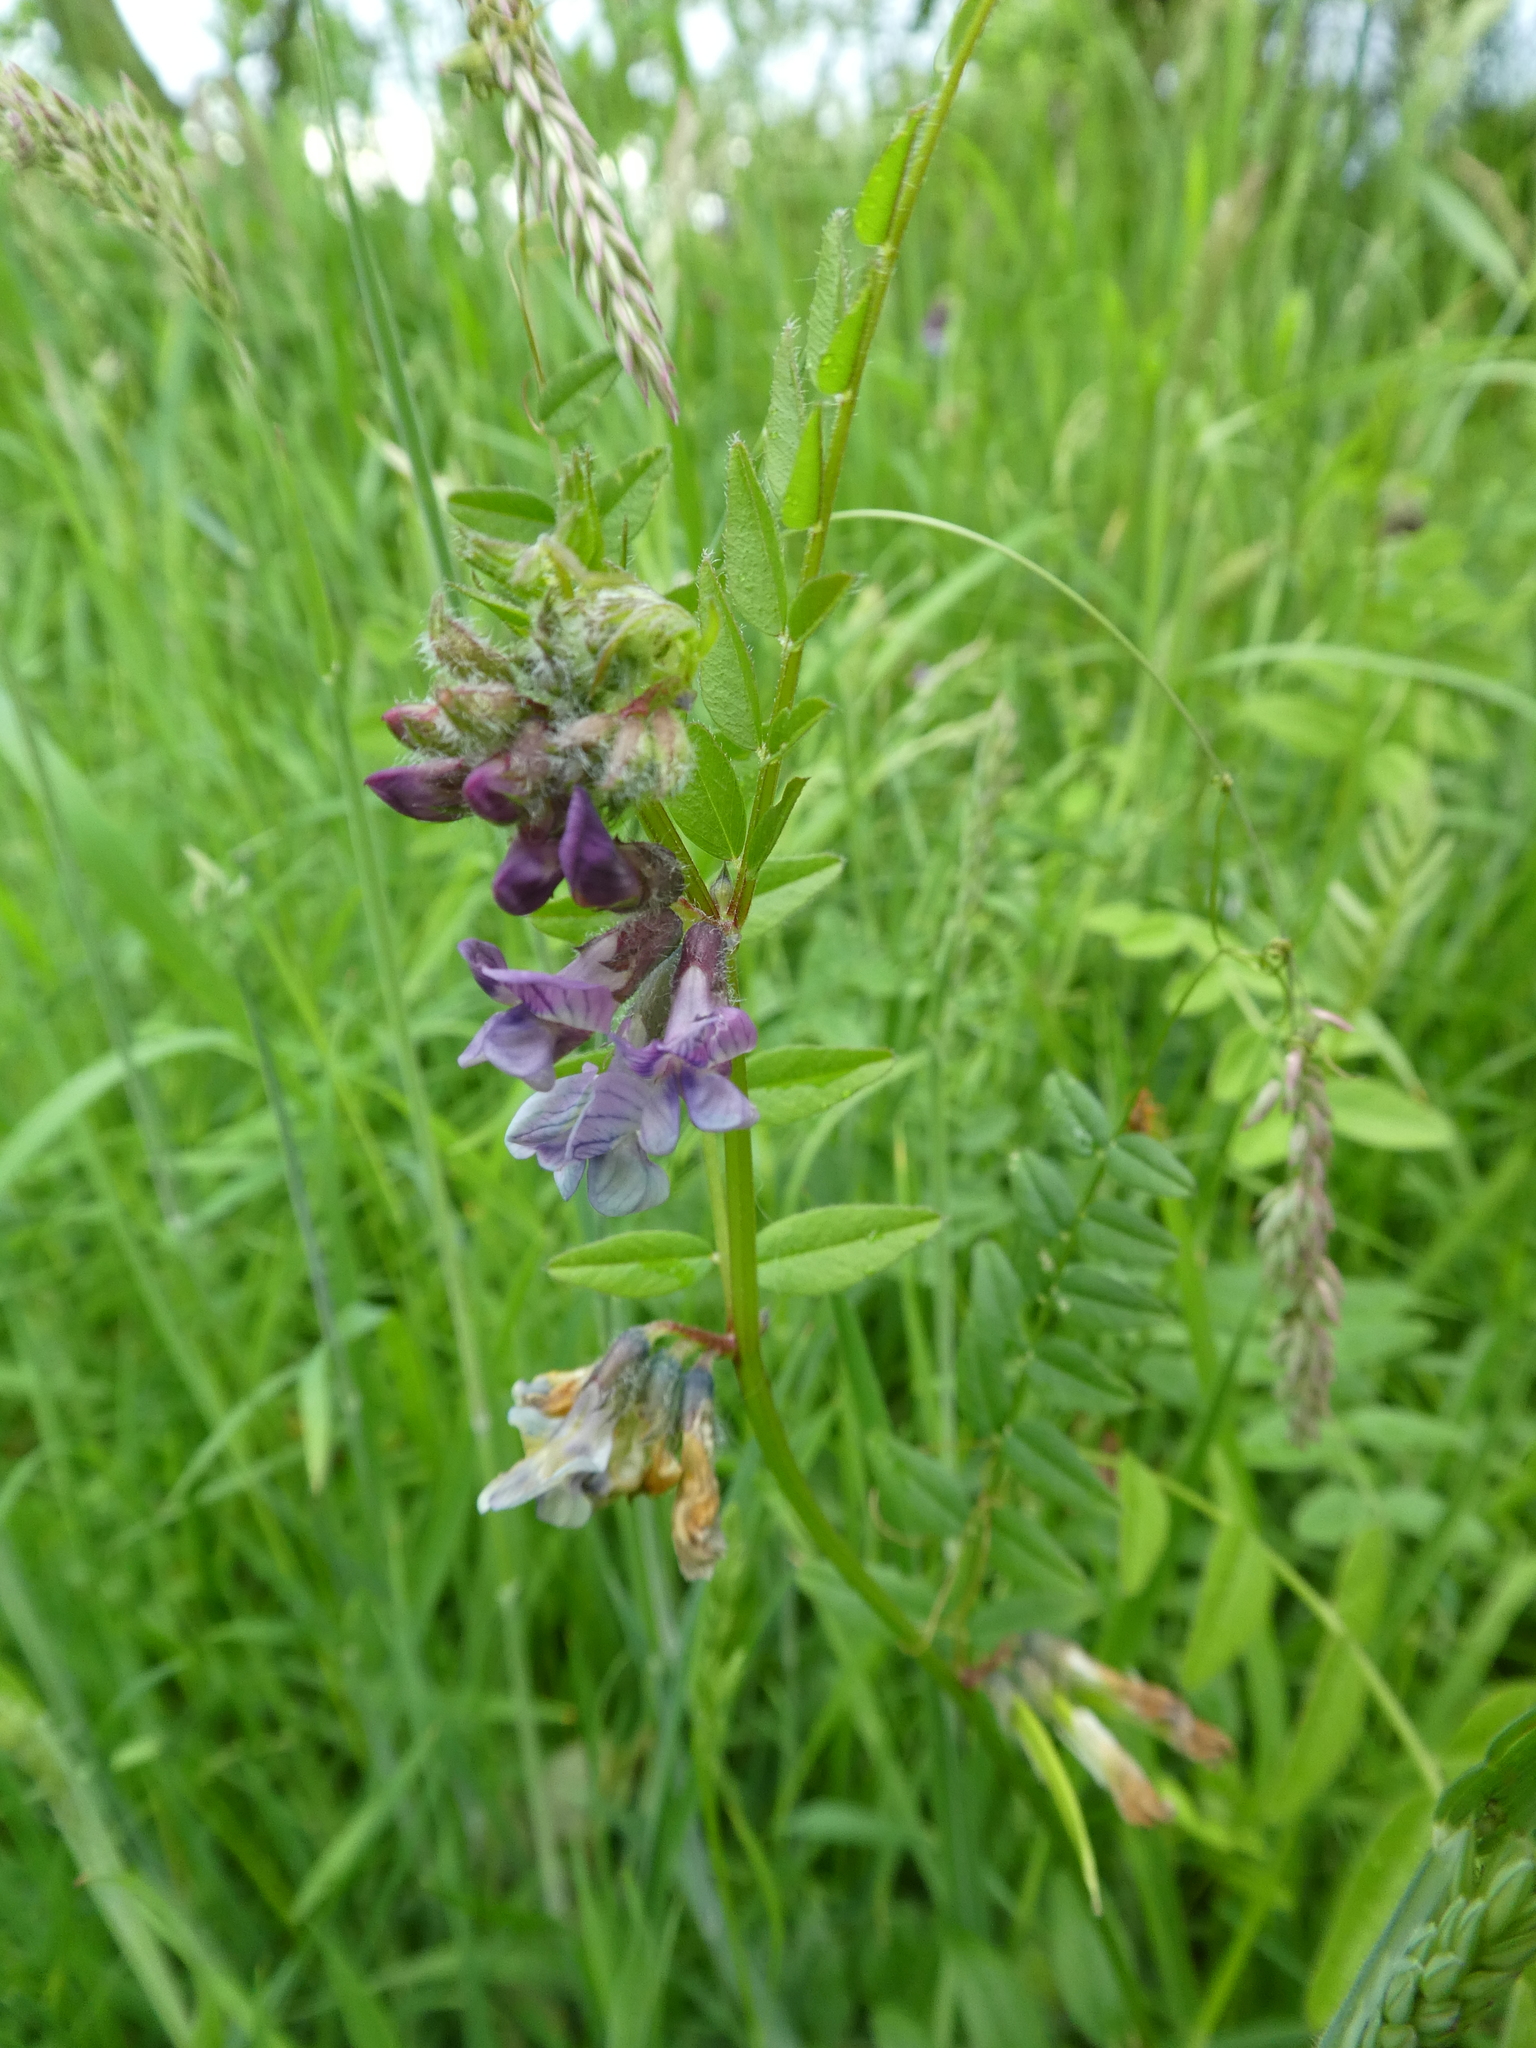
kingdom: Plantae
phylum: Tracheophyta
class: Magnoliopsida
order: Fabales
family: Fabaceae
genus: Vicia
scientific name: Vicia sepium
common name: Bush vetch
